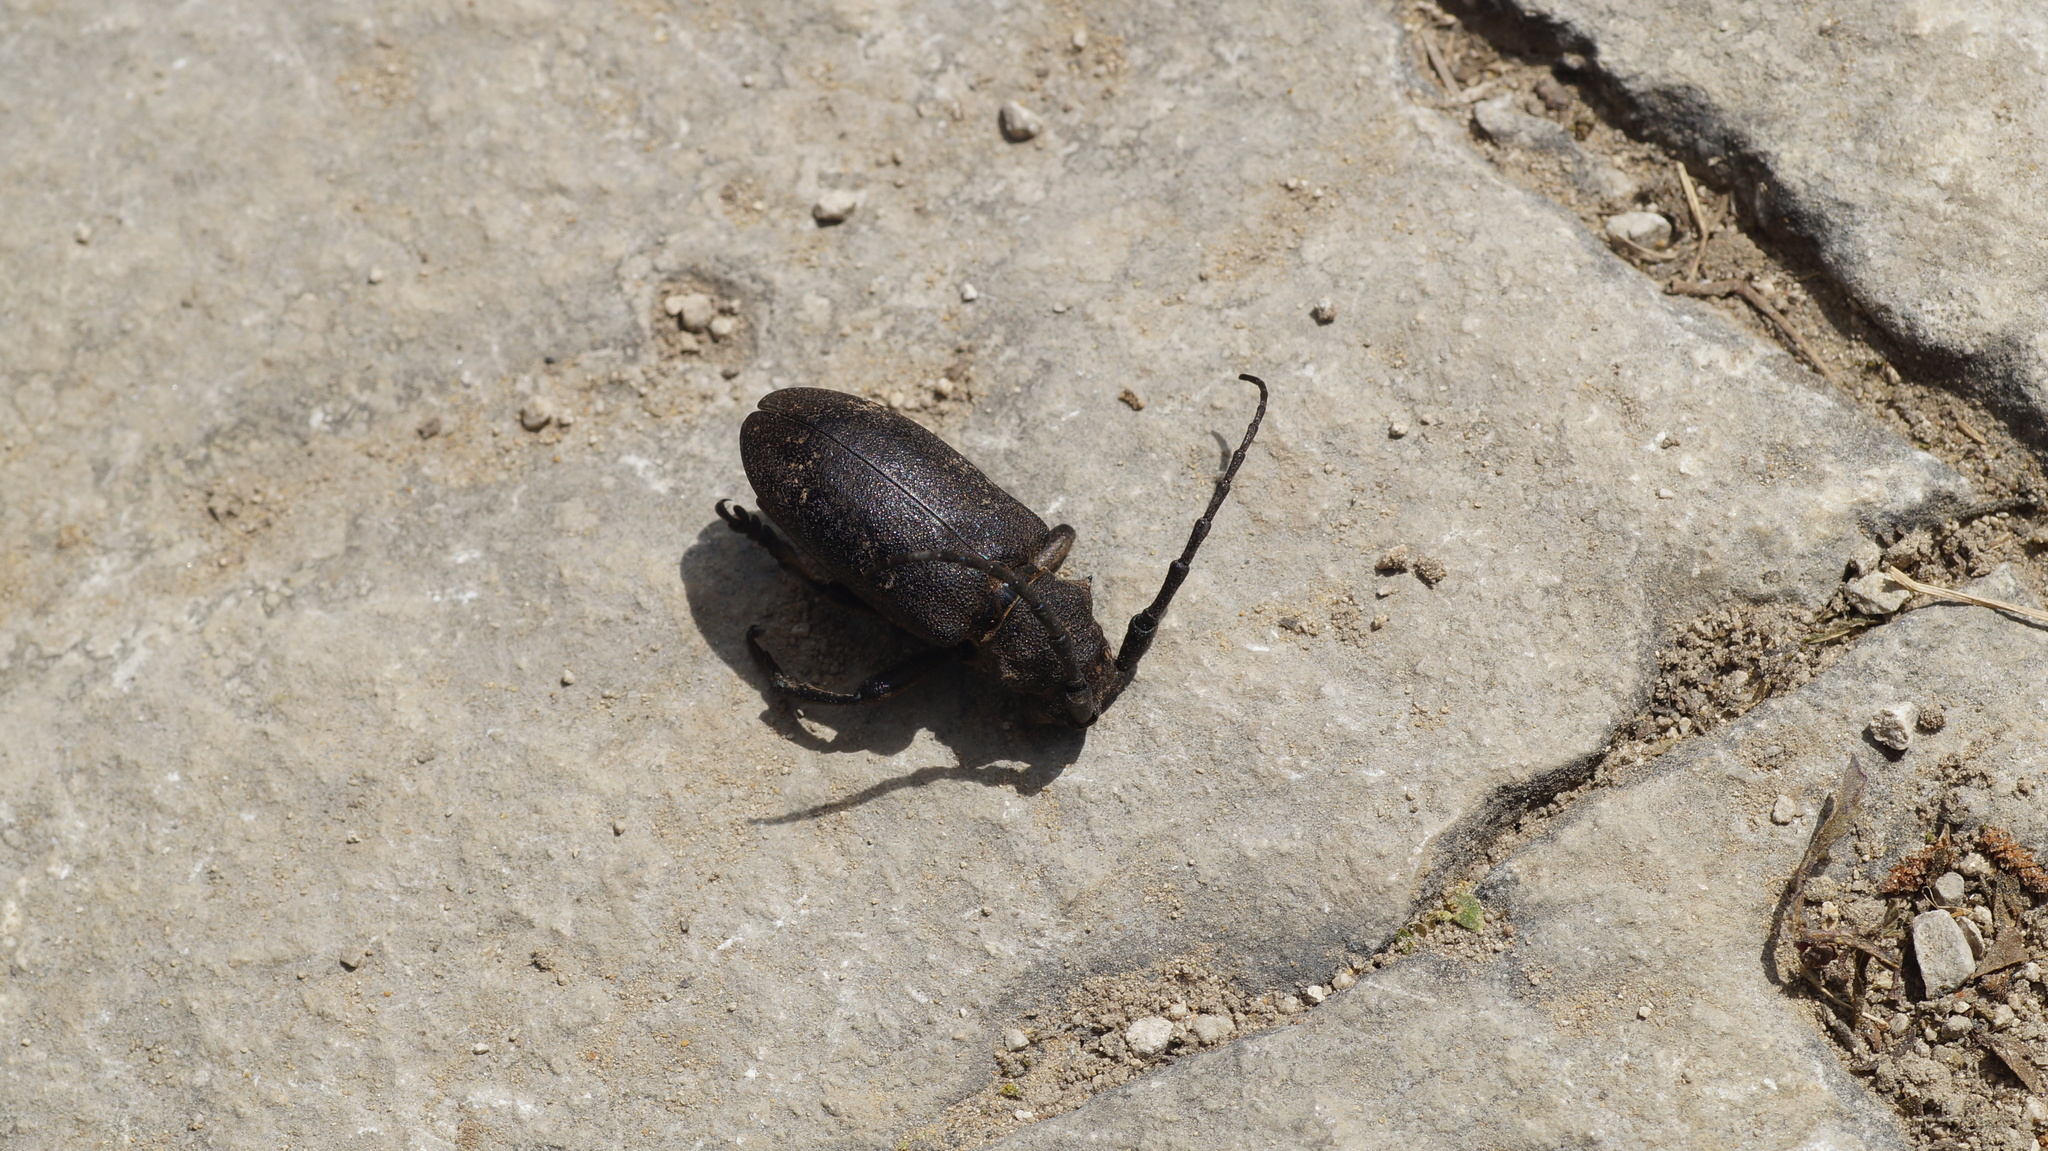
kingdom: Animalia
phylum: Arthropoda
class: Insecta
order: Coleoptera
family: Cerambycidae
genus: Lamia
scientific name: Lamia textor
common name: Weaver beetle
